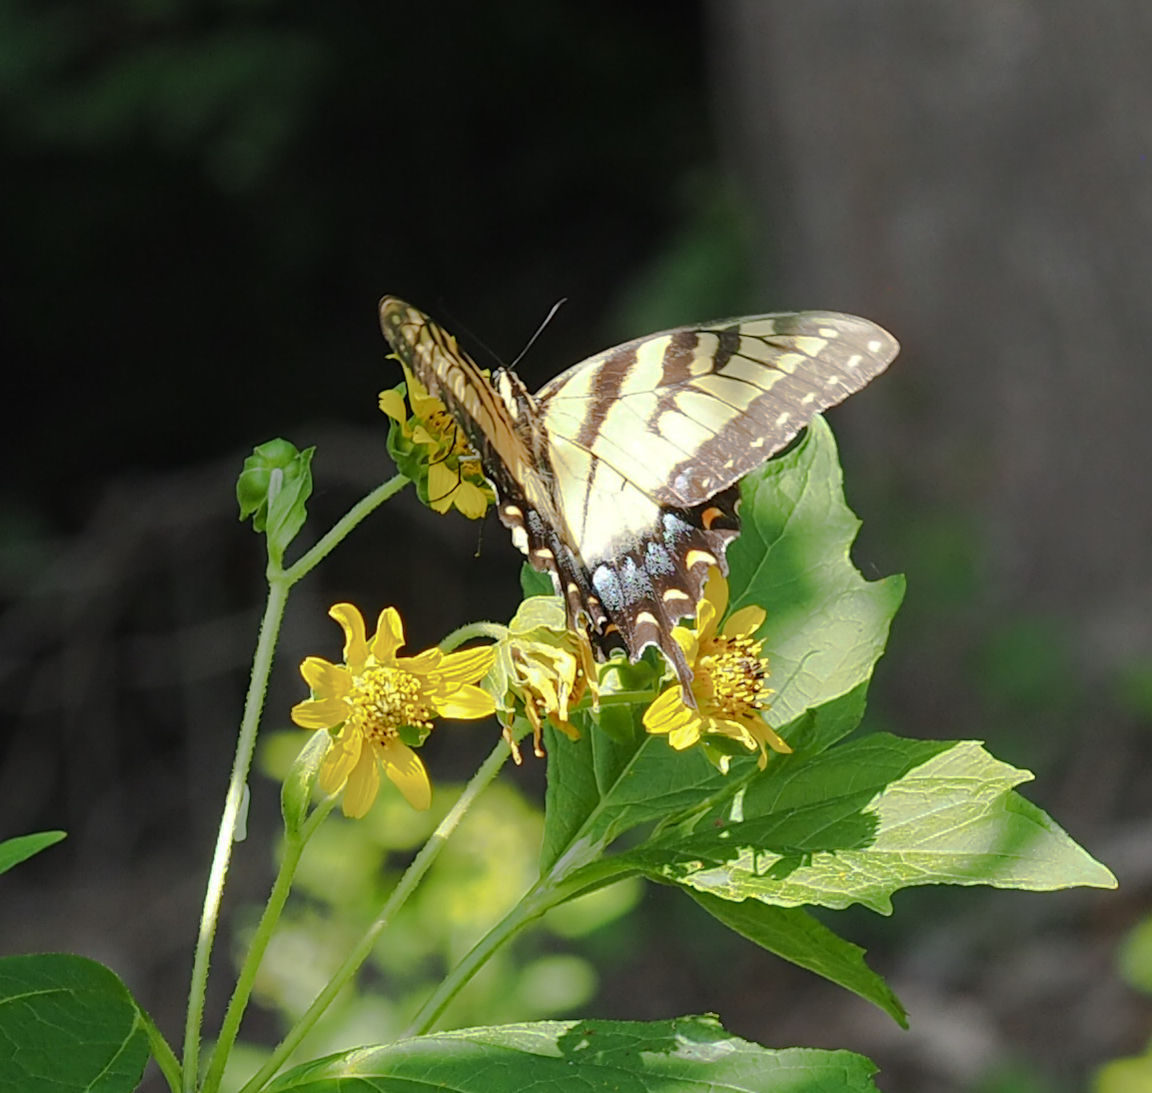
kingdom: Animalia
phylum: Arthropoda
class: Insecta
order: Lepidoptera
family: Papilionidae
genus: Papilio
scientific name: Papilio glaucus
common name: Tiger swallowtail
